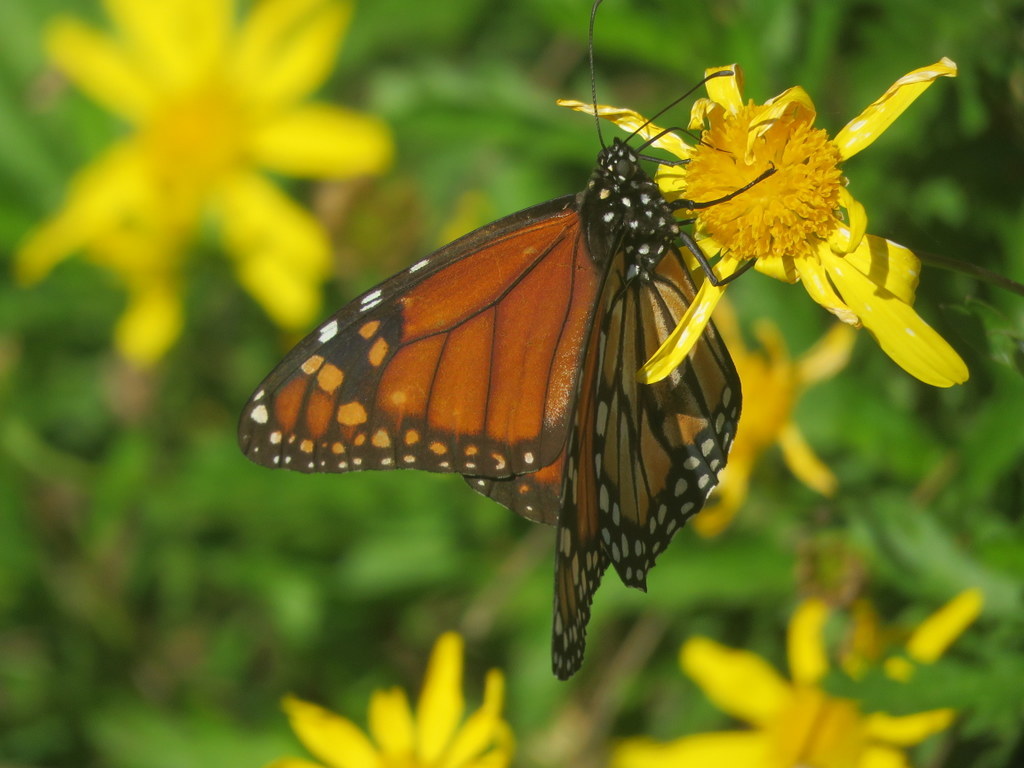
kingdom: Animalia
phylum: Arthropoda
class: Insecta
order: Lepidoptera
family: Nymphalidae
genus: Danaus
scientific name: Danaus erippus
